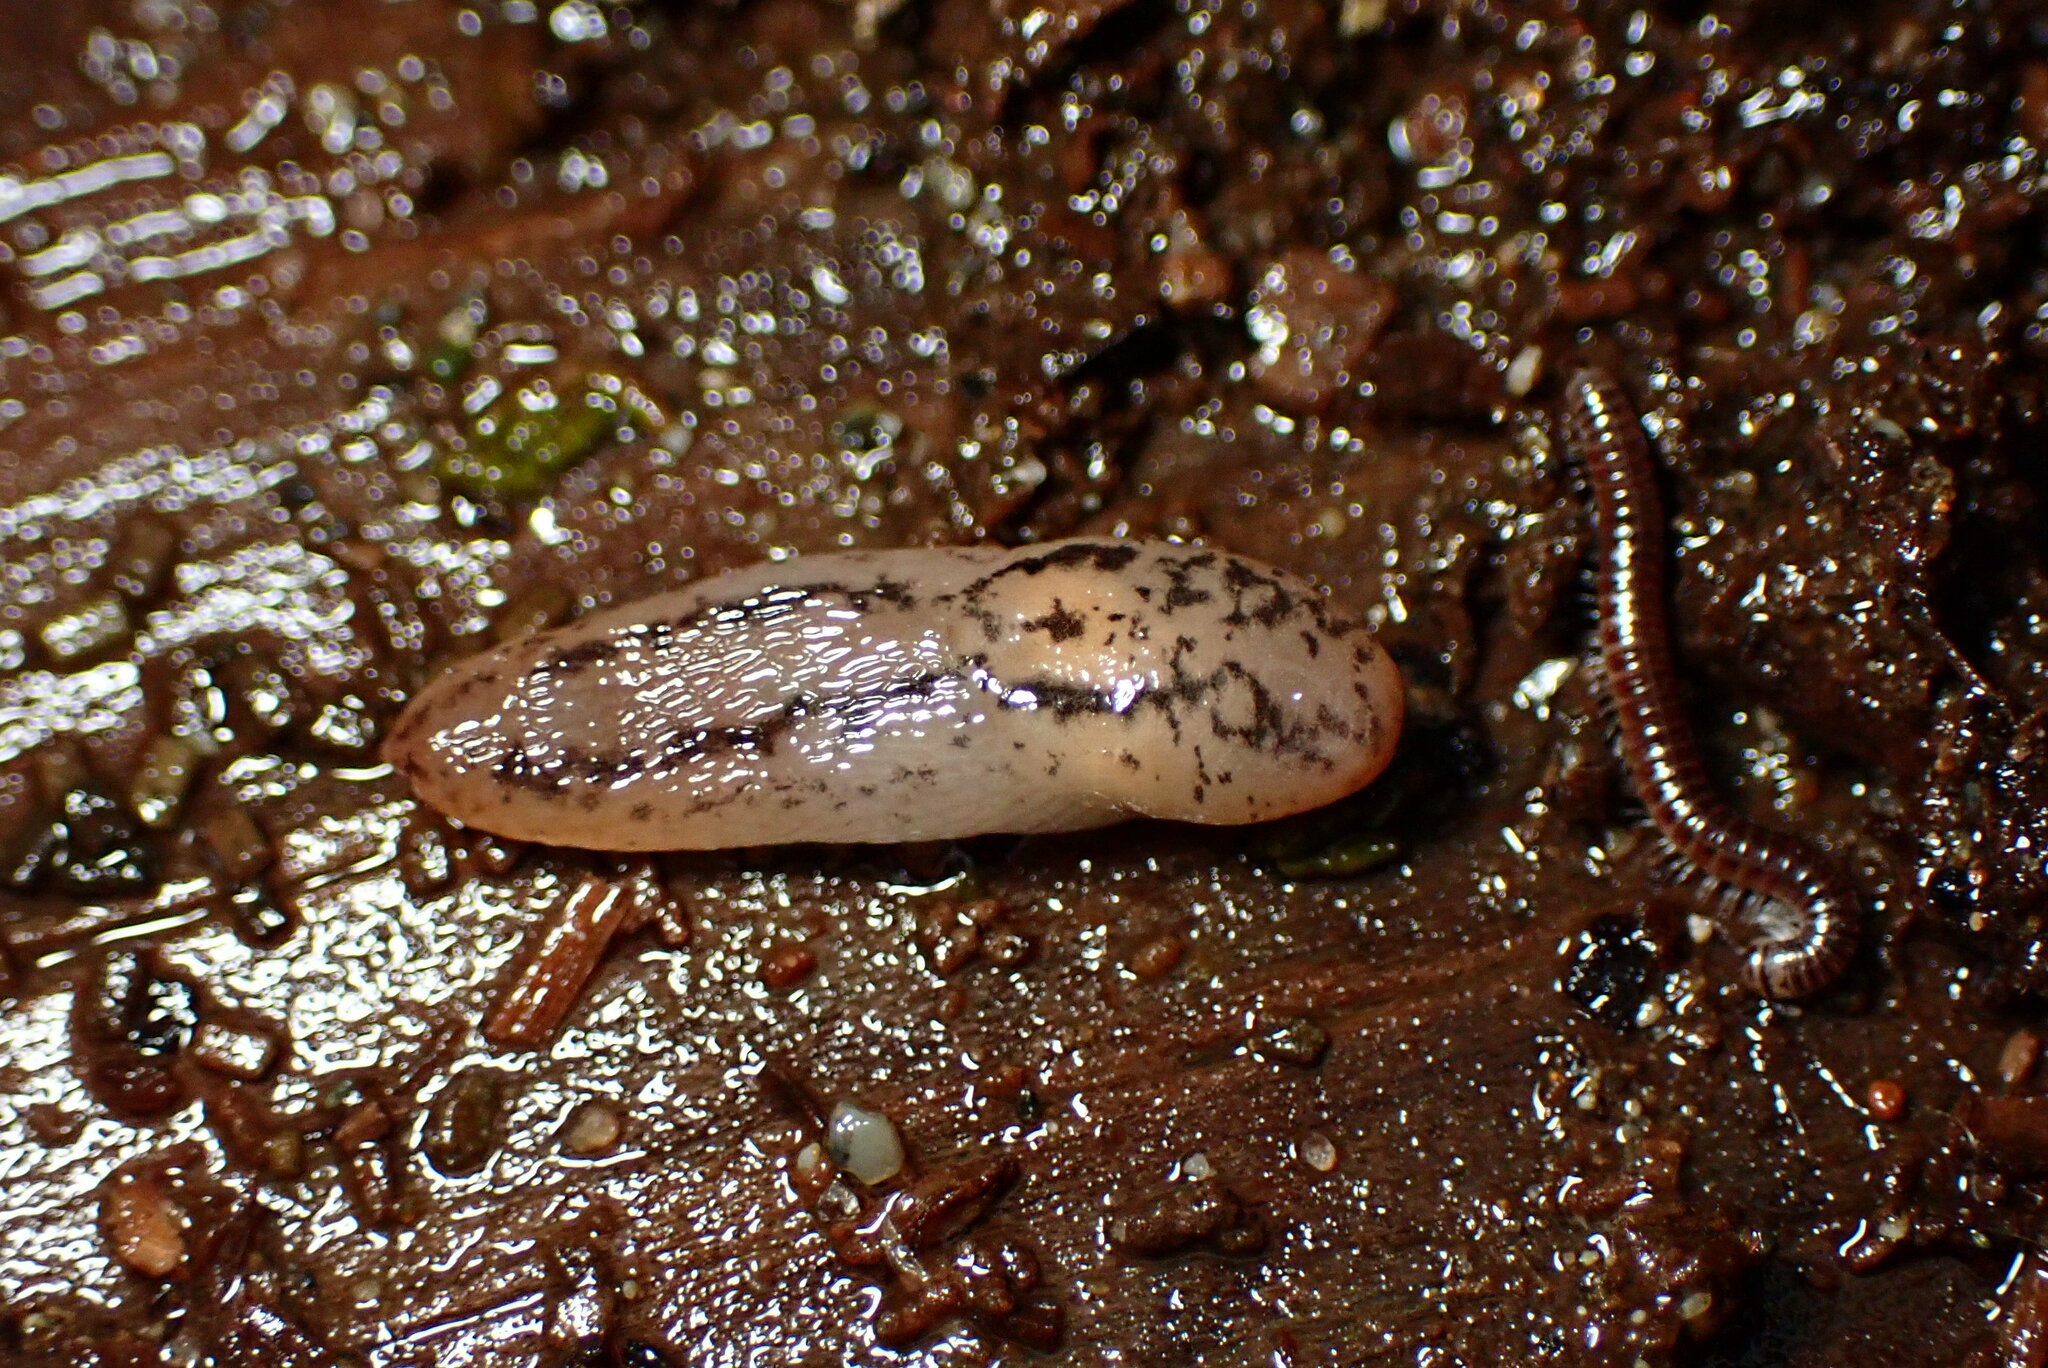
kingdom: Animalia
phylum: Mollusca
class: Gastropoda
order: Stylommatophora
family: Limacidae
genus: Ambigolimax
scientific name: Ambigolimax
